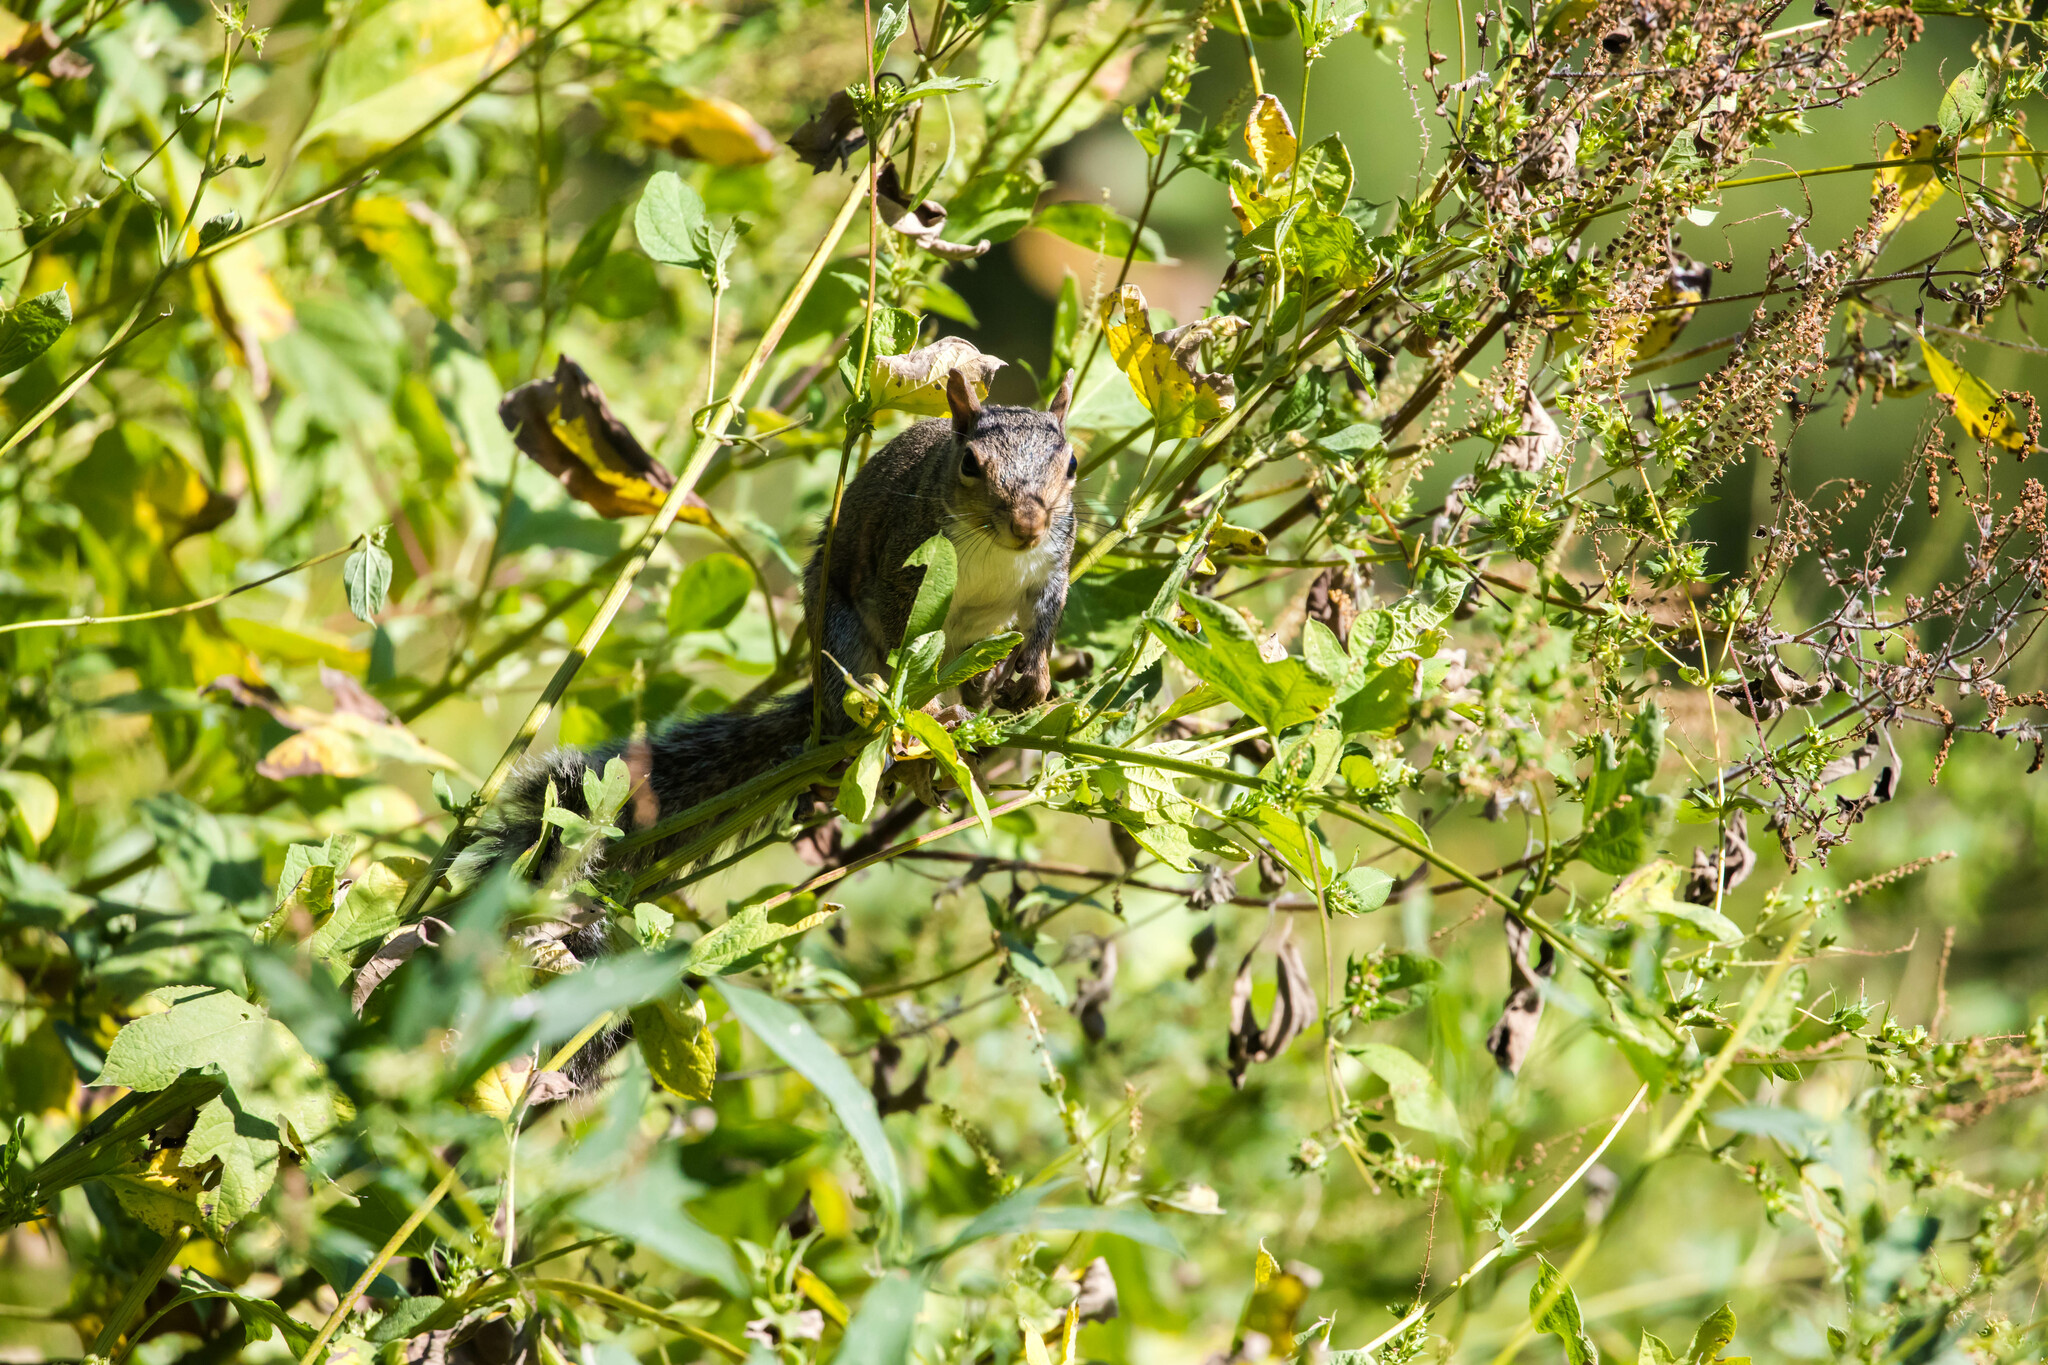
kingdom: Animalia
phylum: Chordata
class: Mammalia
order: Rodentia
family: Sciuridae
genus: Sciurus
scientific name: Sciurus carolinensis
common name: Eastern gray squirrel
